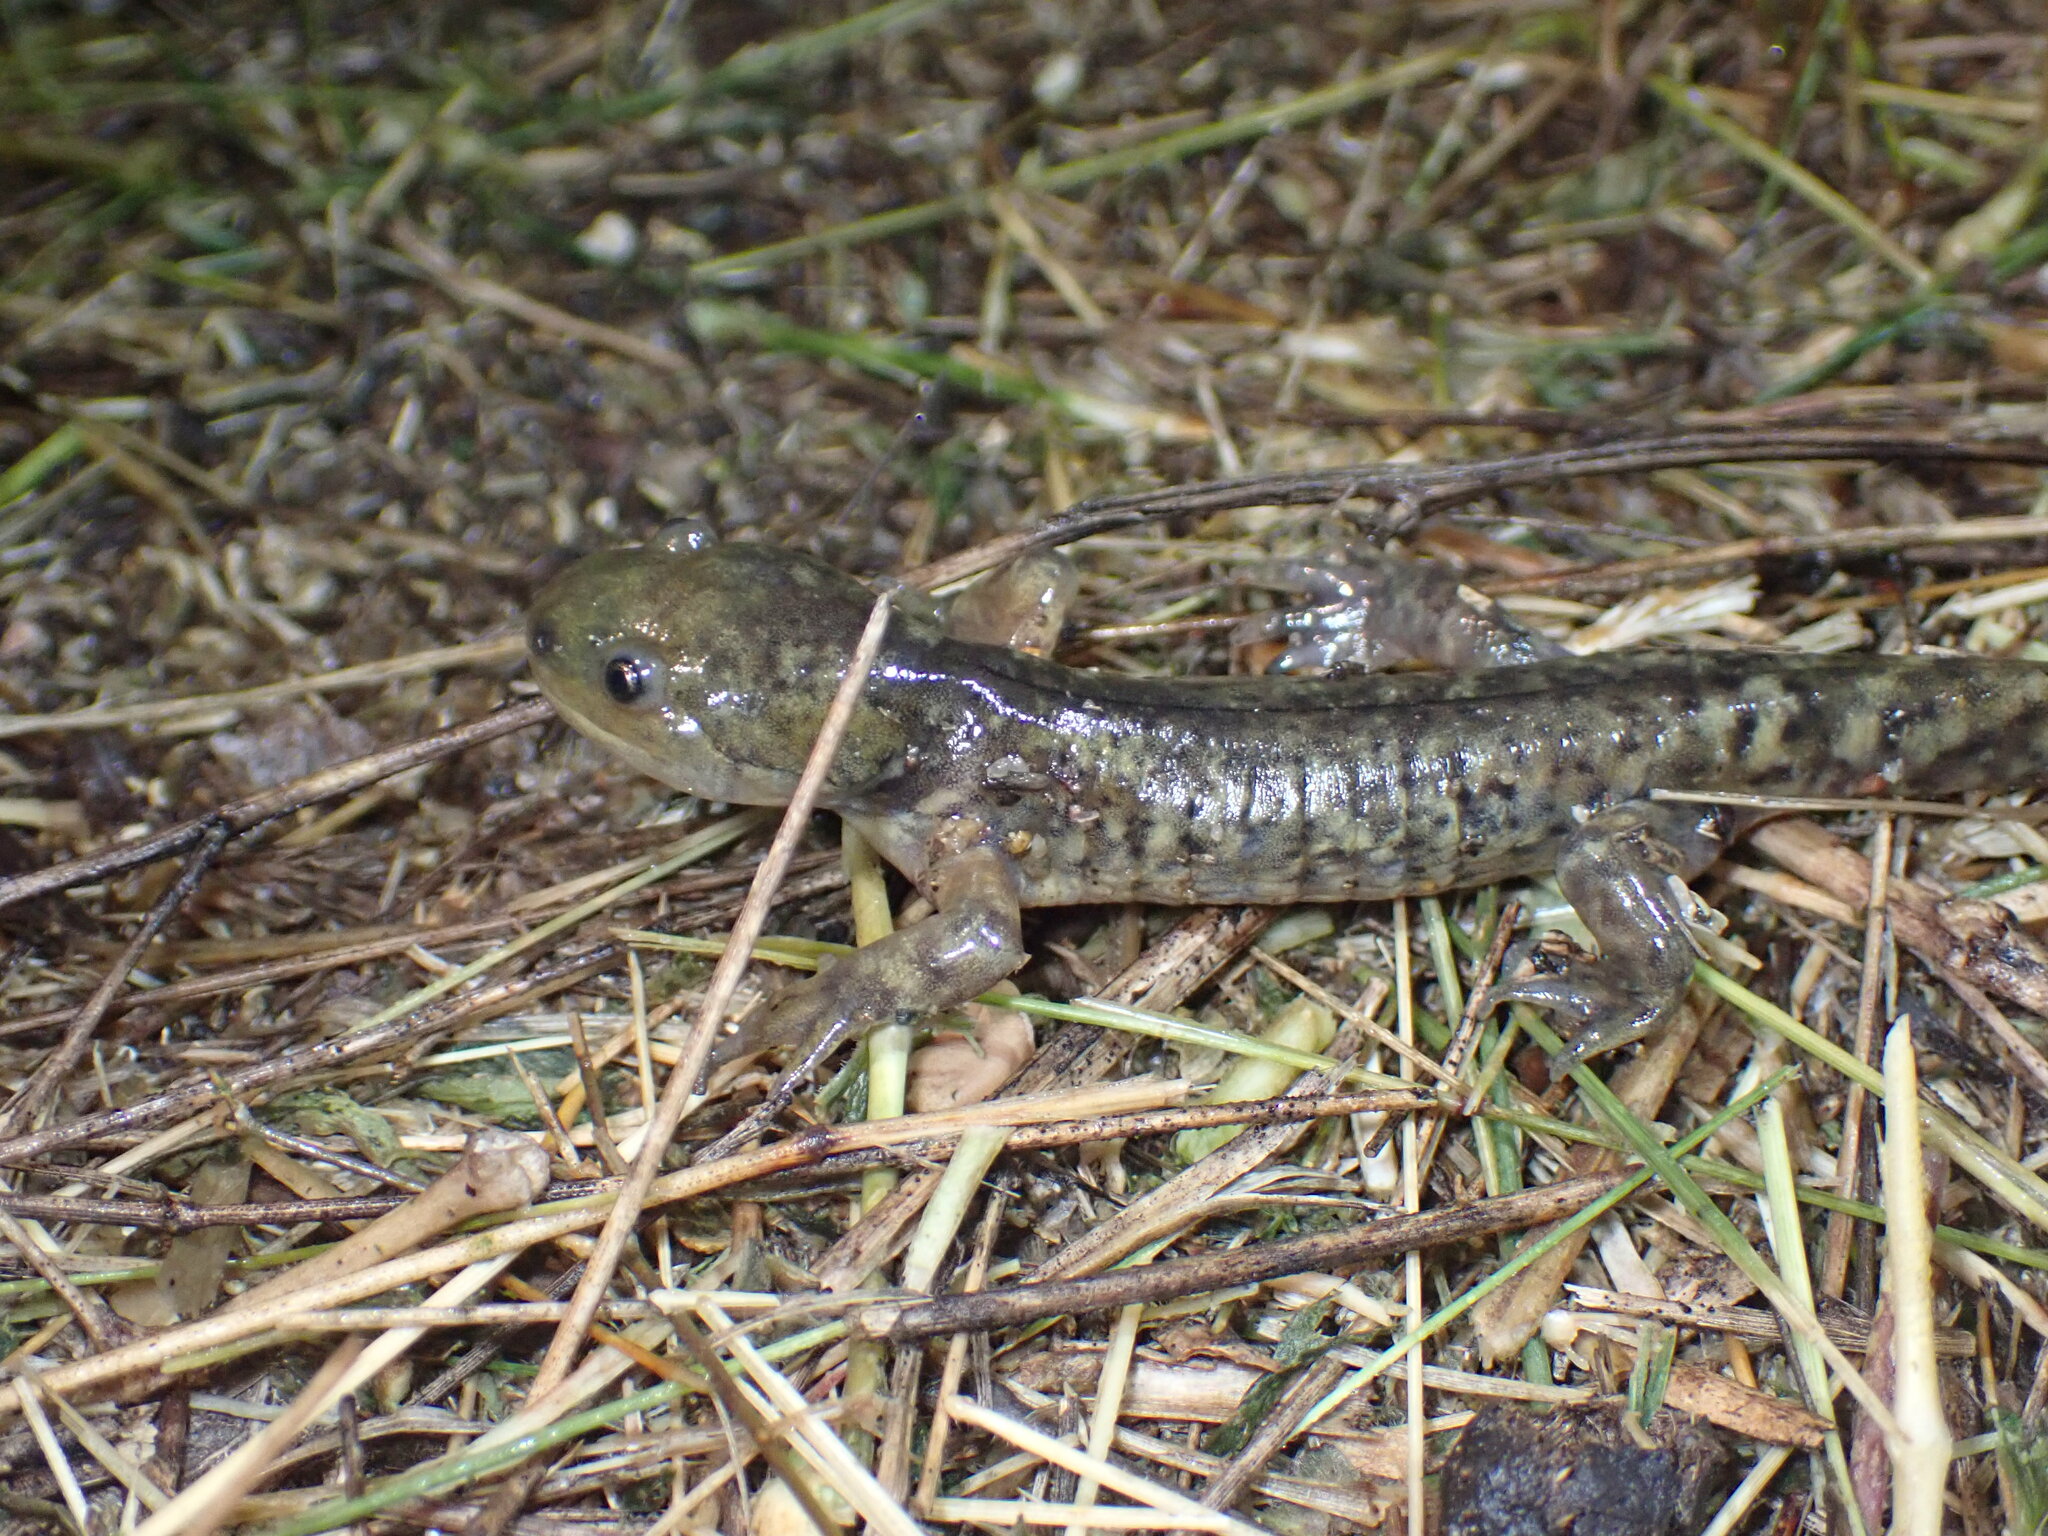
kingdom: Animalia
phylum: Chordata
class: Amphibia
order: Caudata
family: Ambystomatidae
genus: Ambystoma
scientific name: Ambystoma mavortium
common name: Western tiger salamander
